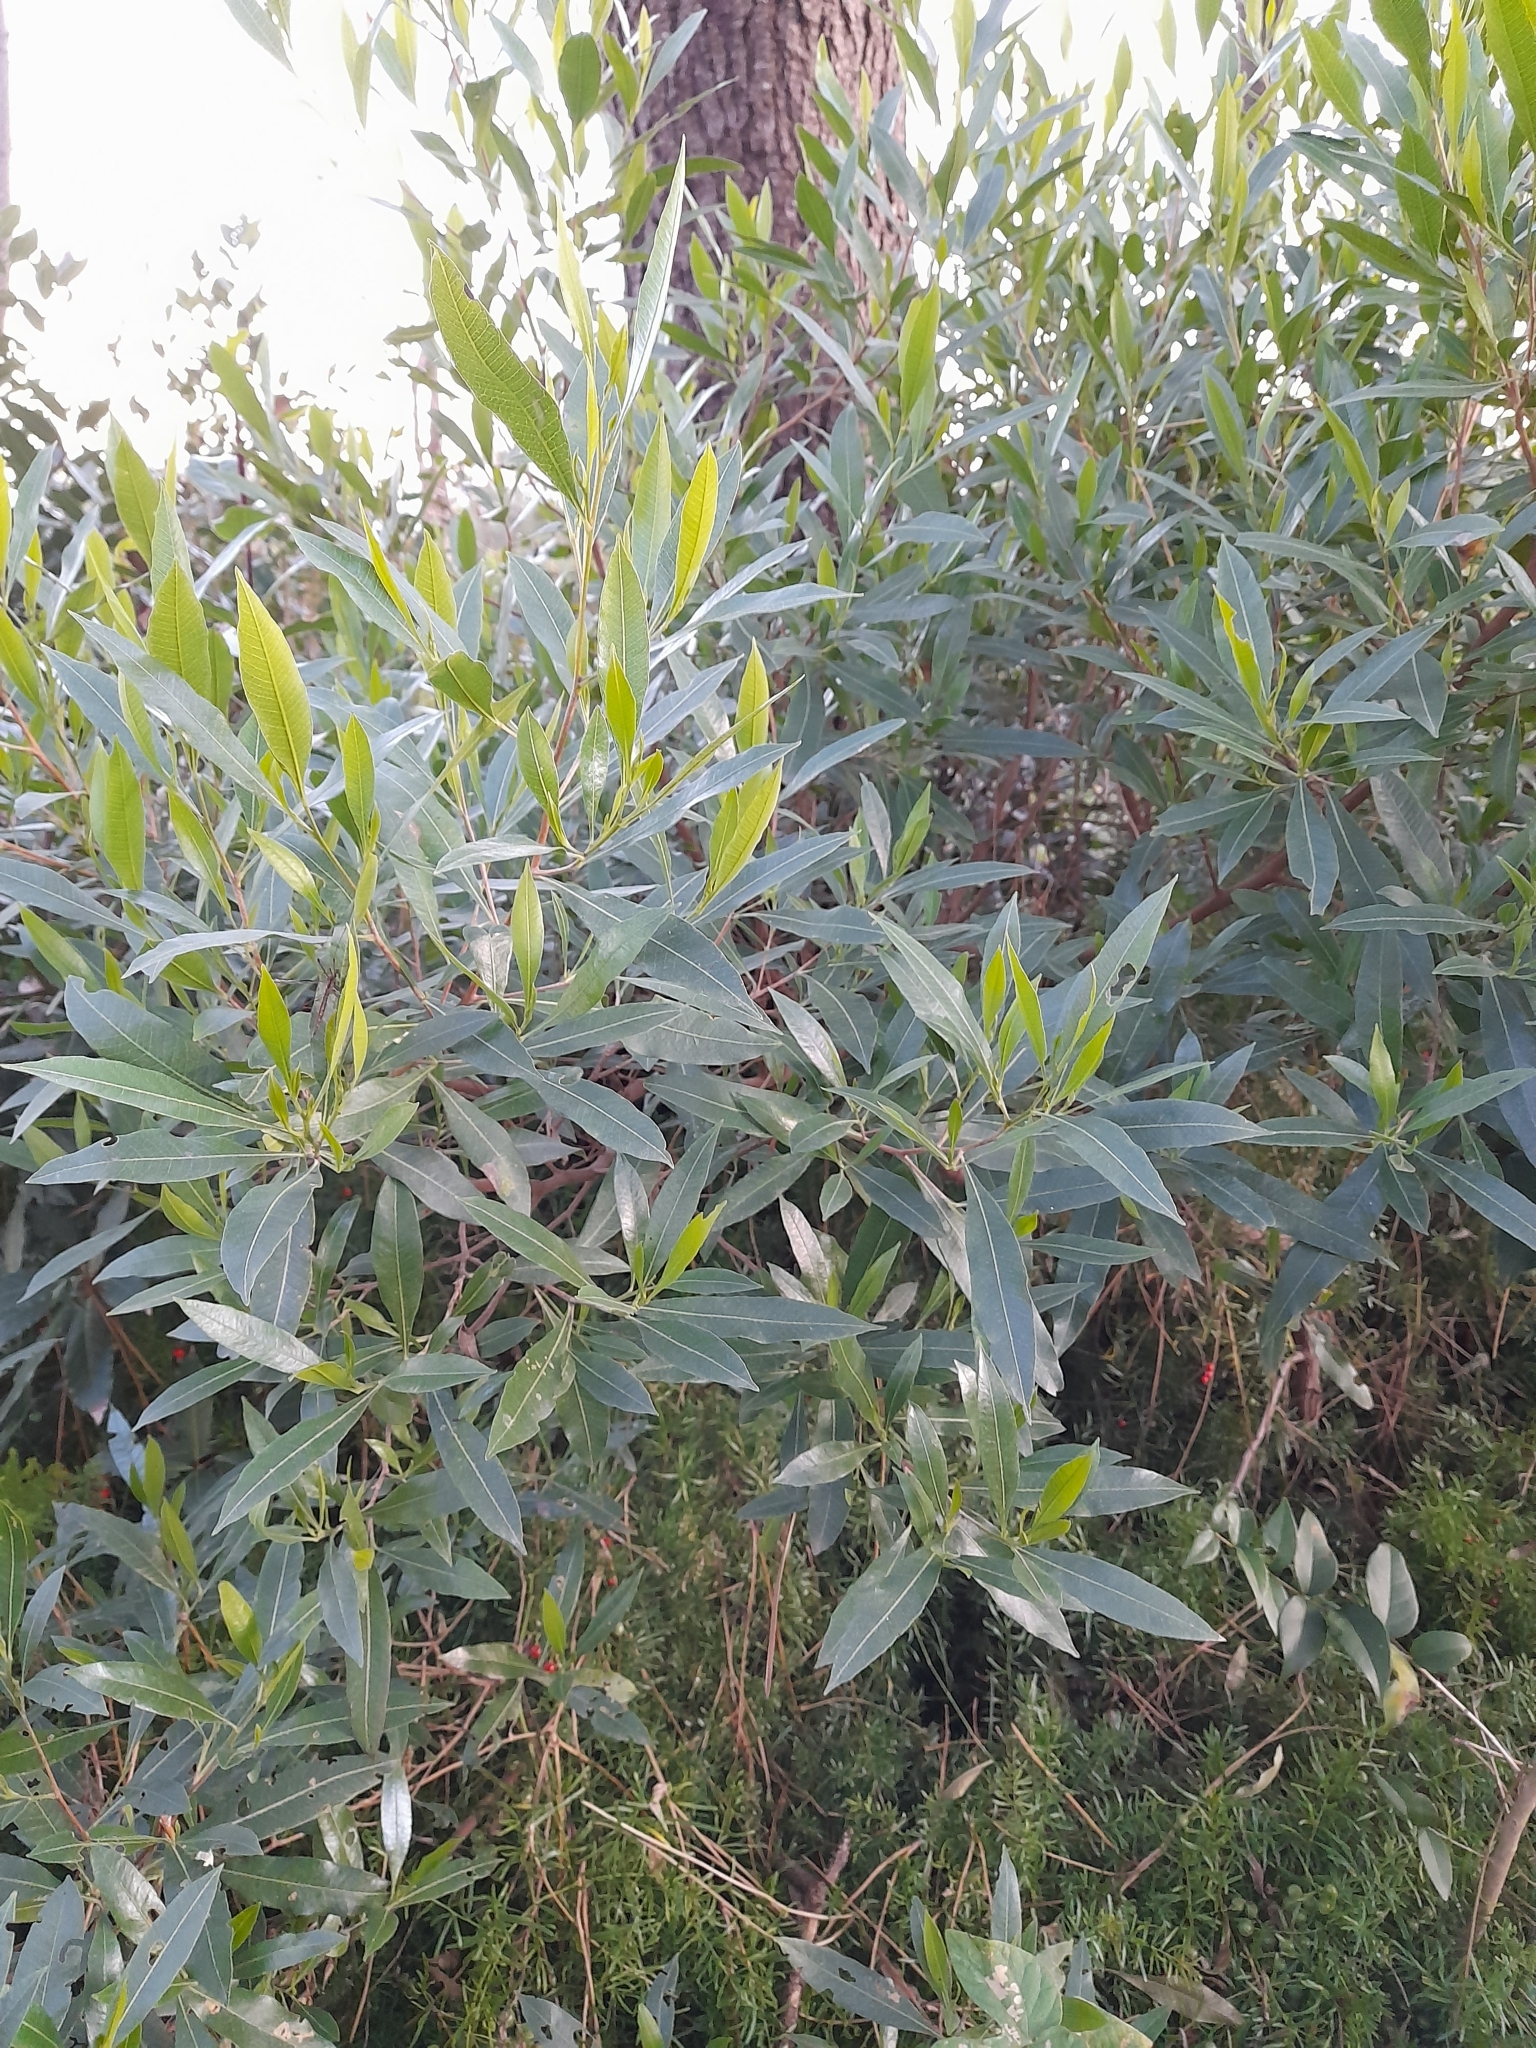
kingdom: Plantae
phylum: Tracheophyta
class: Magnoliopsida
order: Sapindales
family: Sapindaceae
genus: Dodonaea
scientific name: Dodonaea viscosa
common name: Hopbush
